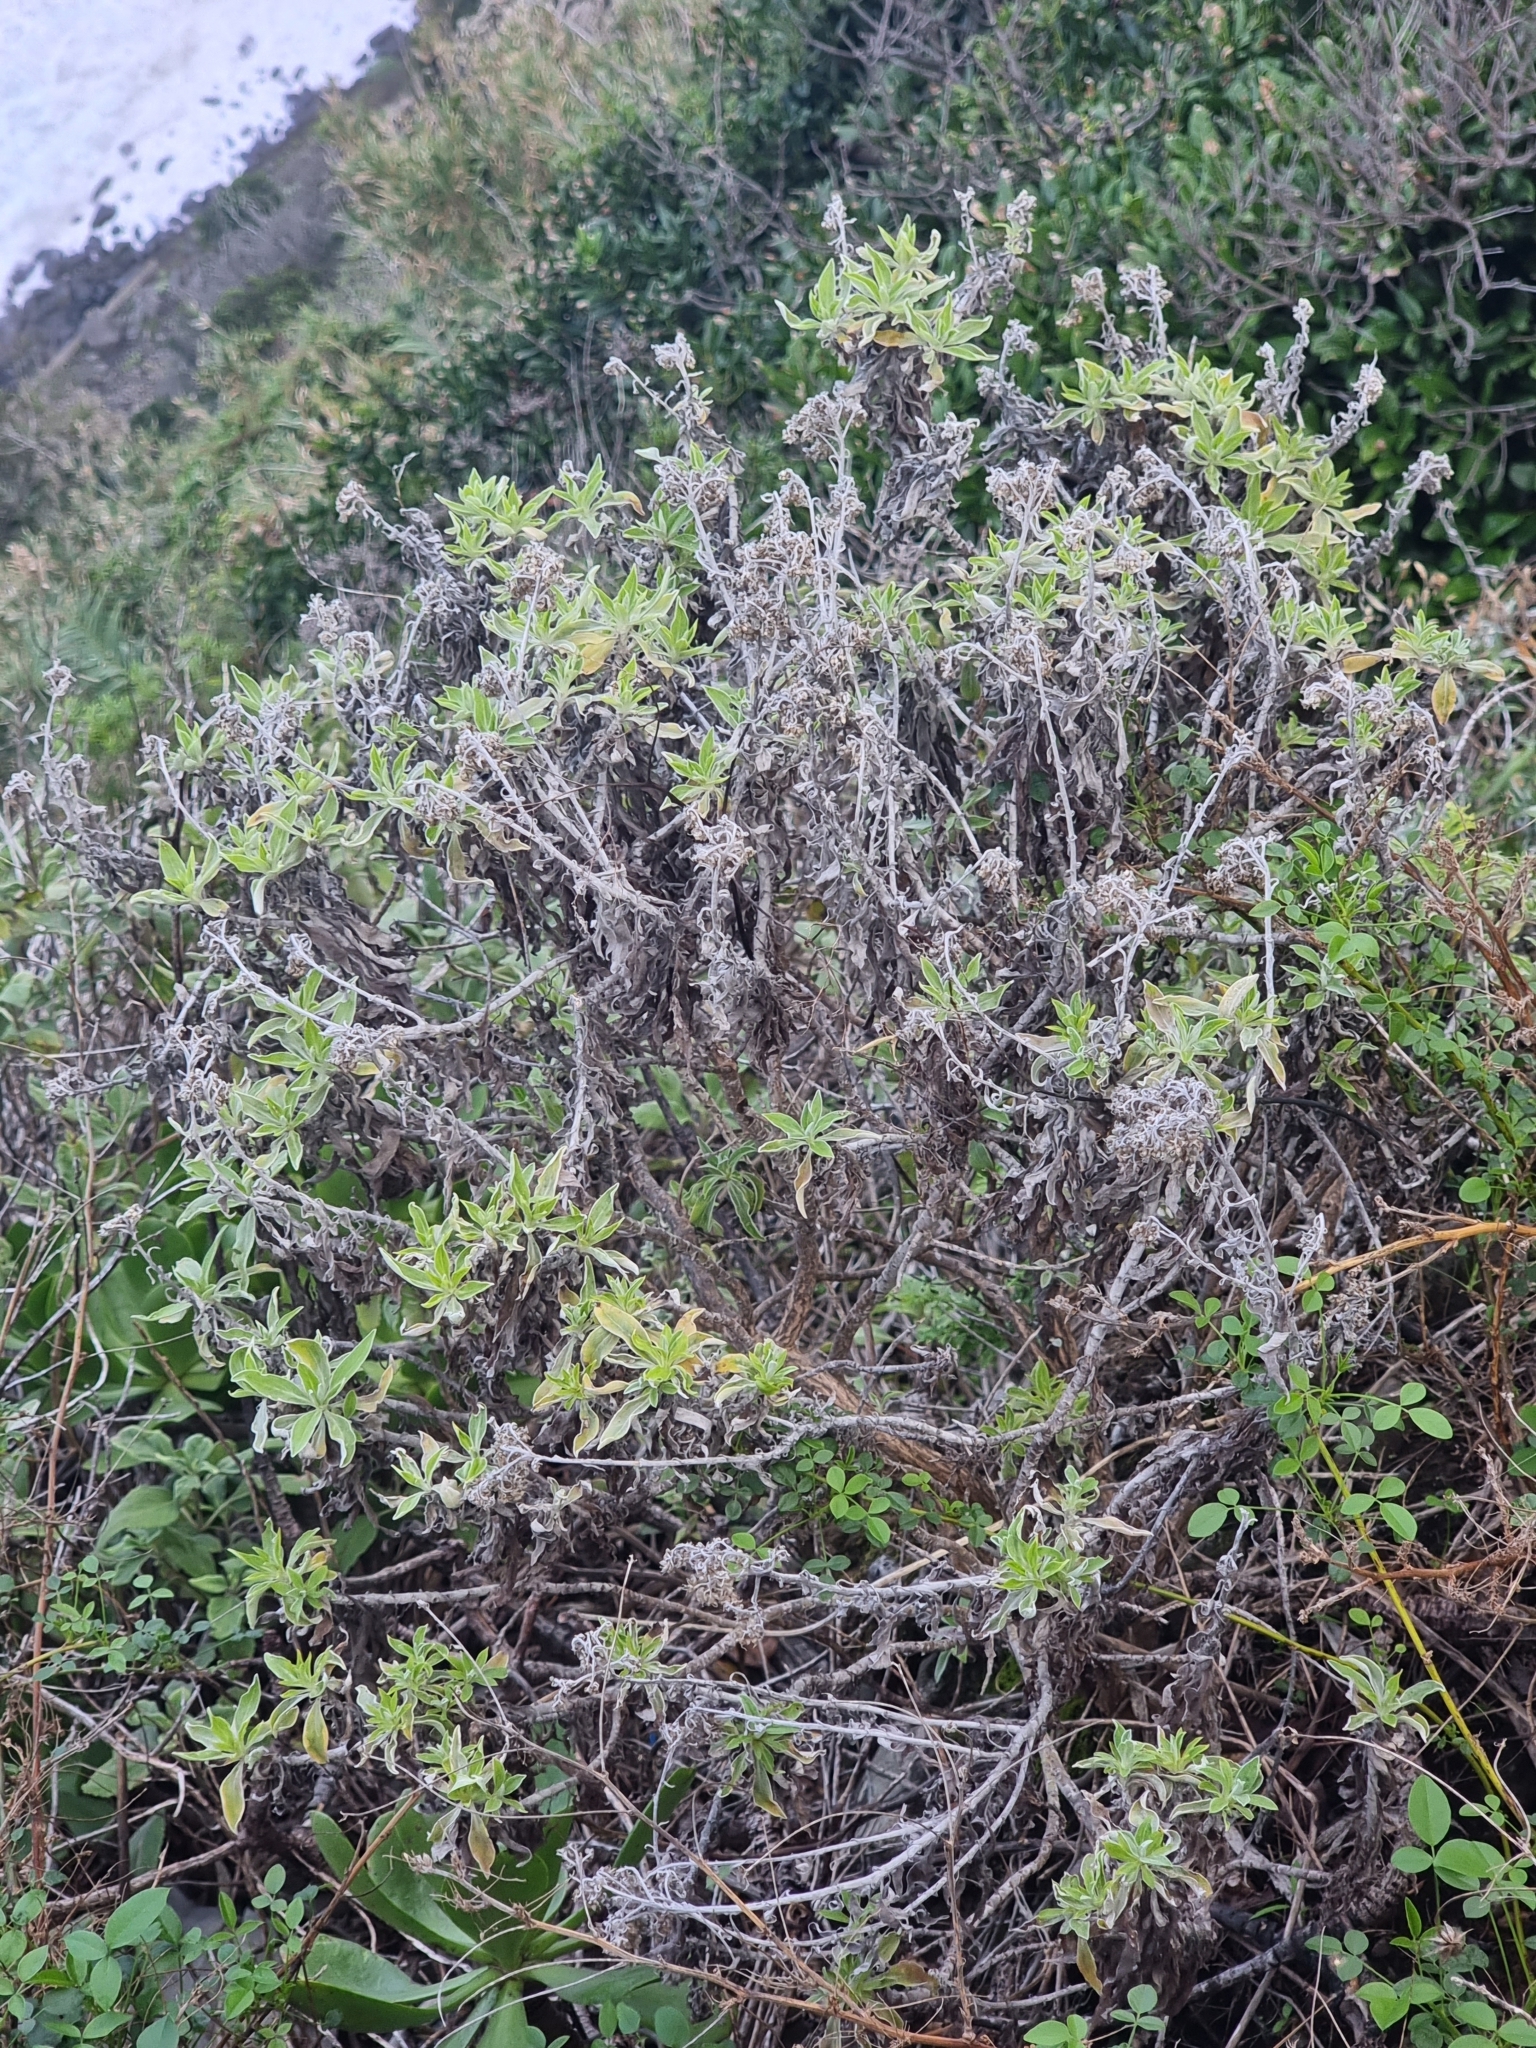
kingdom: Plantae
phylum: Tracheophyta
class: Magnoliopsida
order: Asterales
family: Asteraceae
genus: Helichrysum
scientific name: Helichrysum melaleucum
